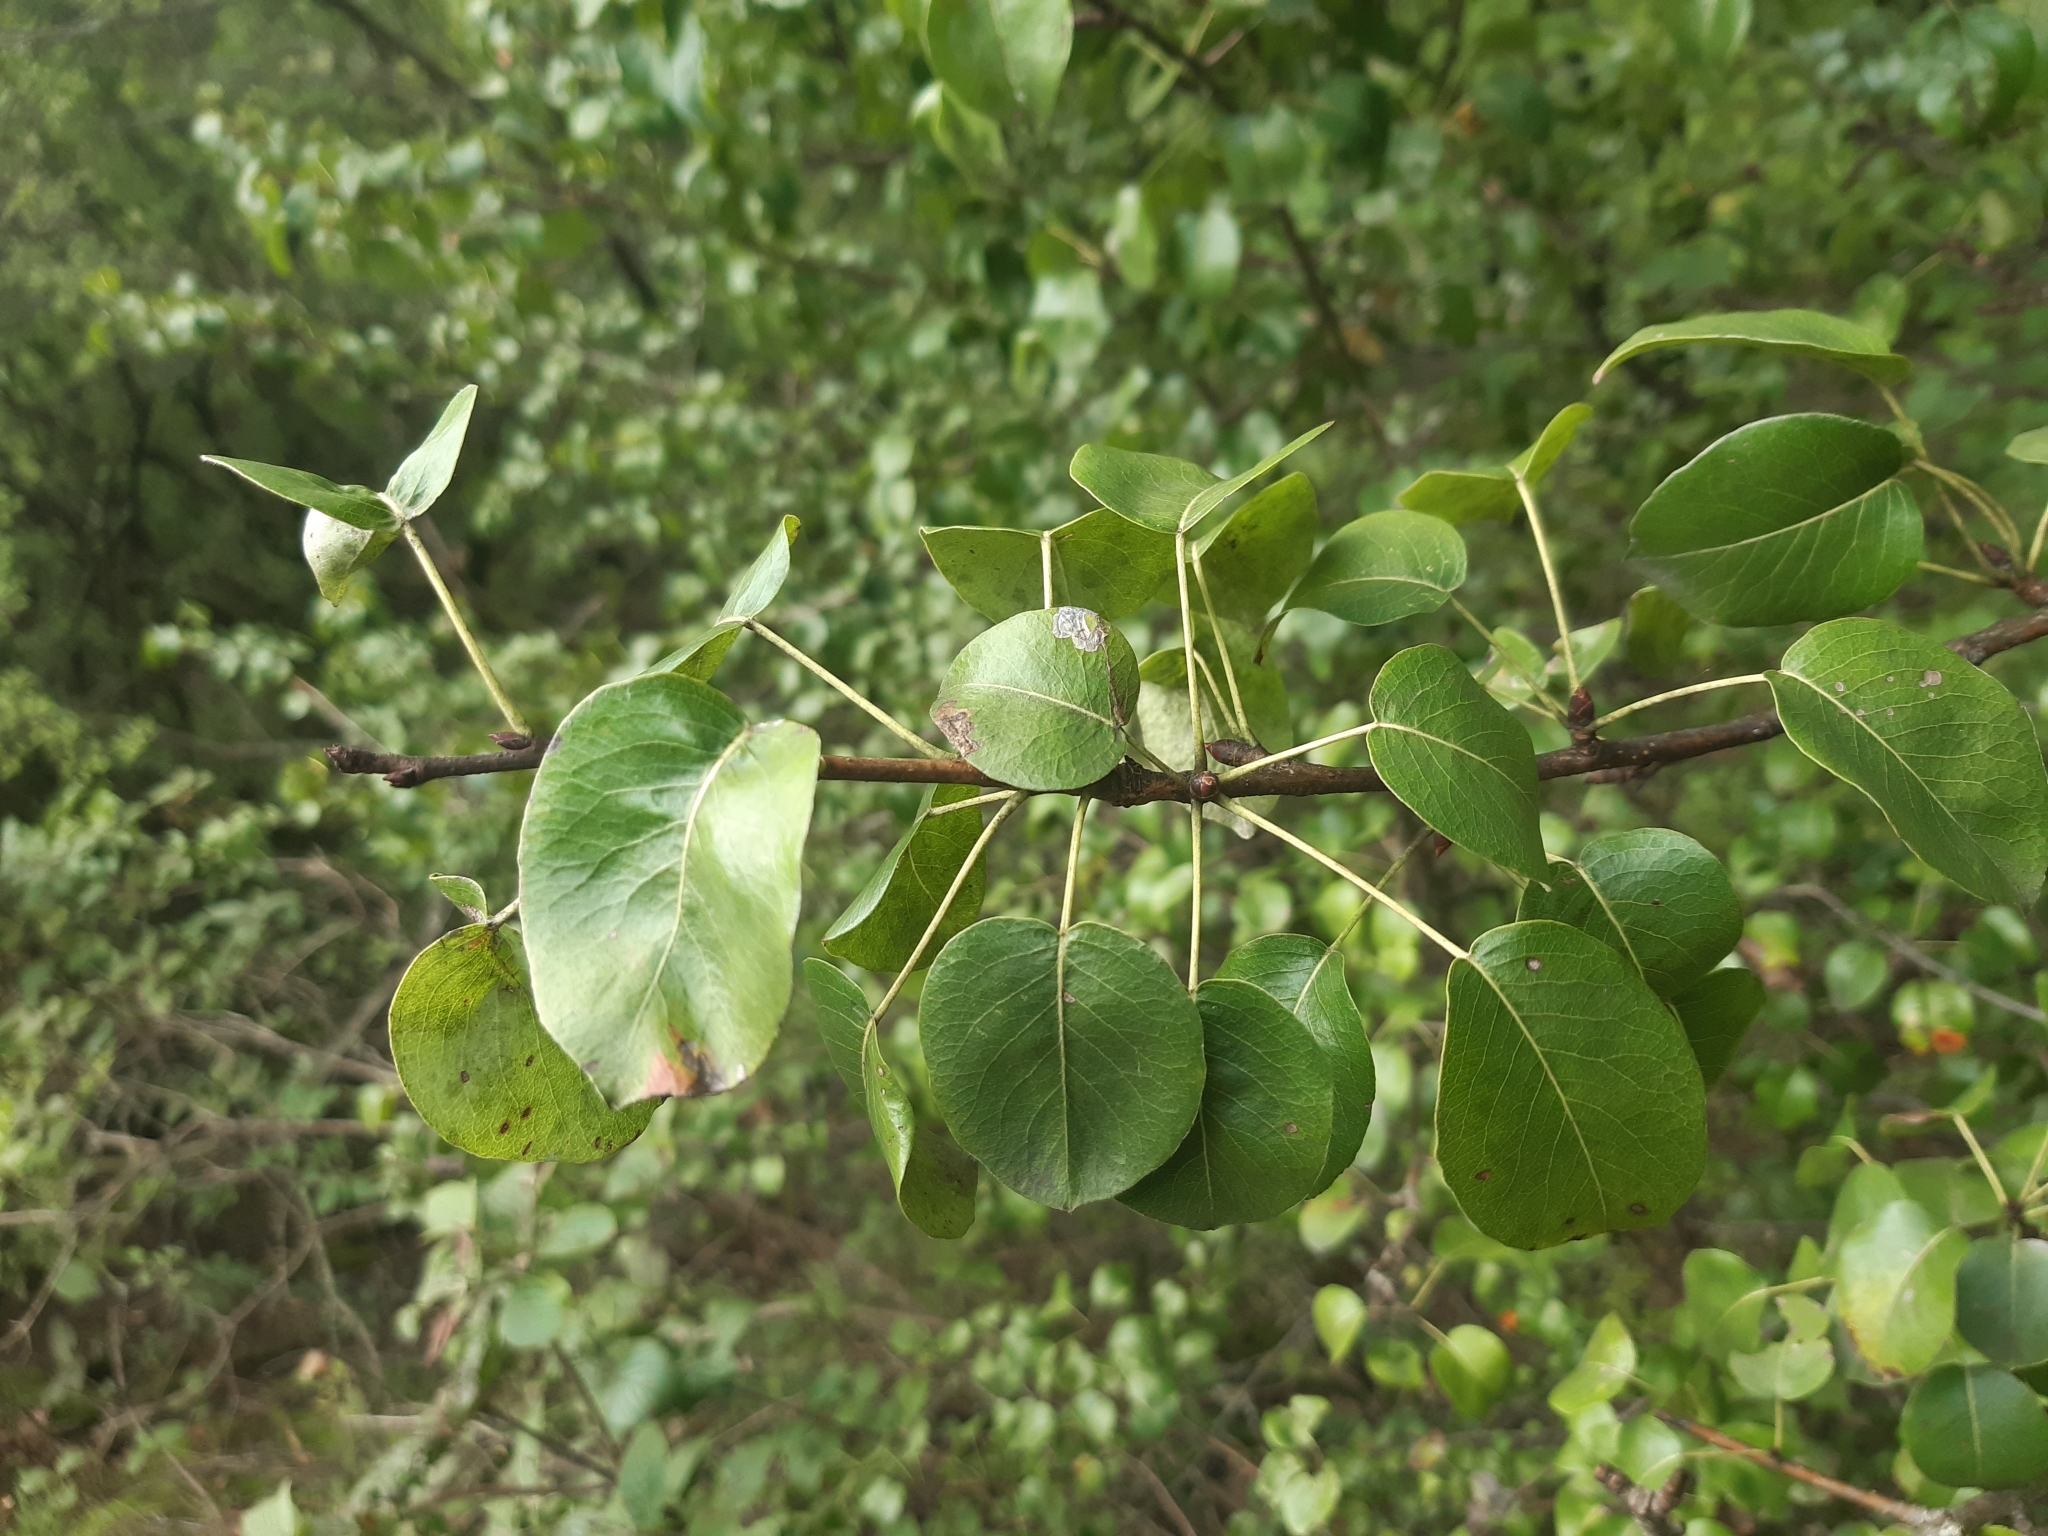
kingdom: Plantae
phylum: Tracheophyta
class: Magnoliopsida
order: Rosales
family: Rosaceae
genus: Pyrus
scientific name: Pyrus
